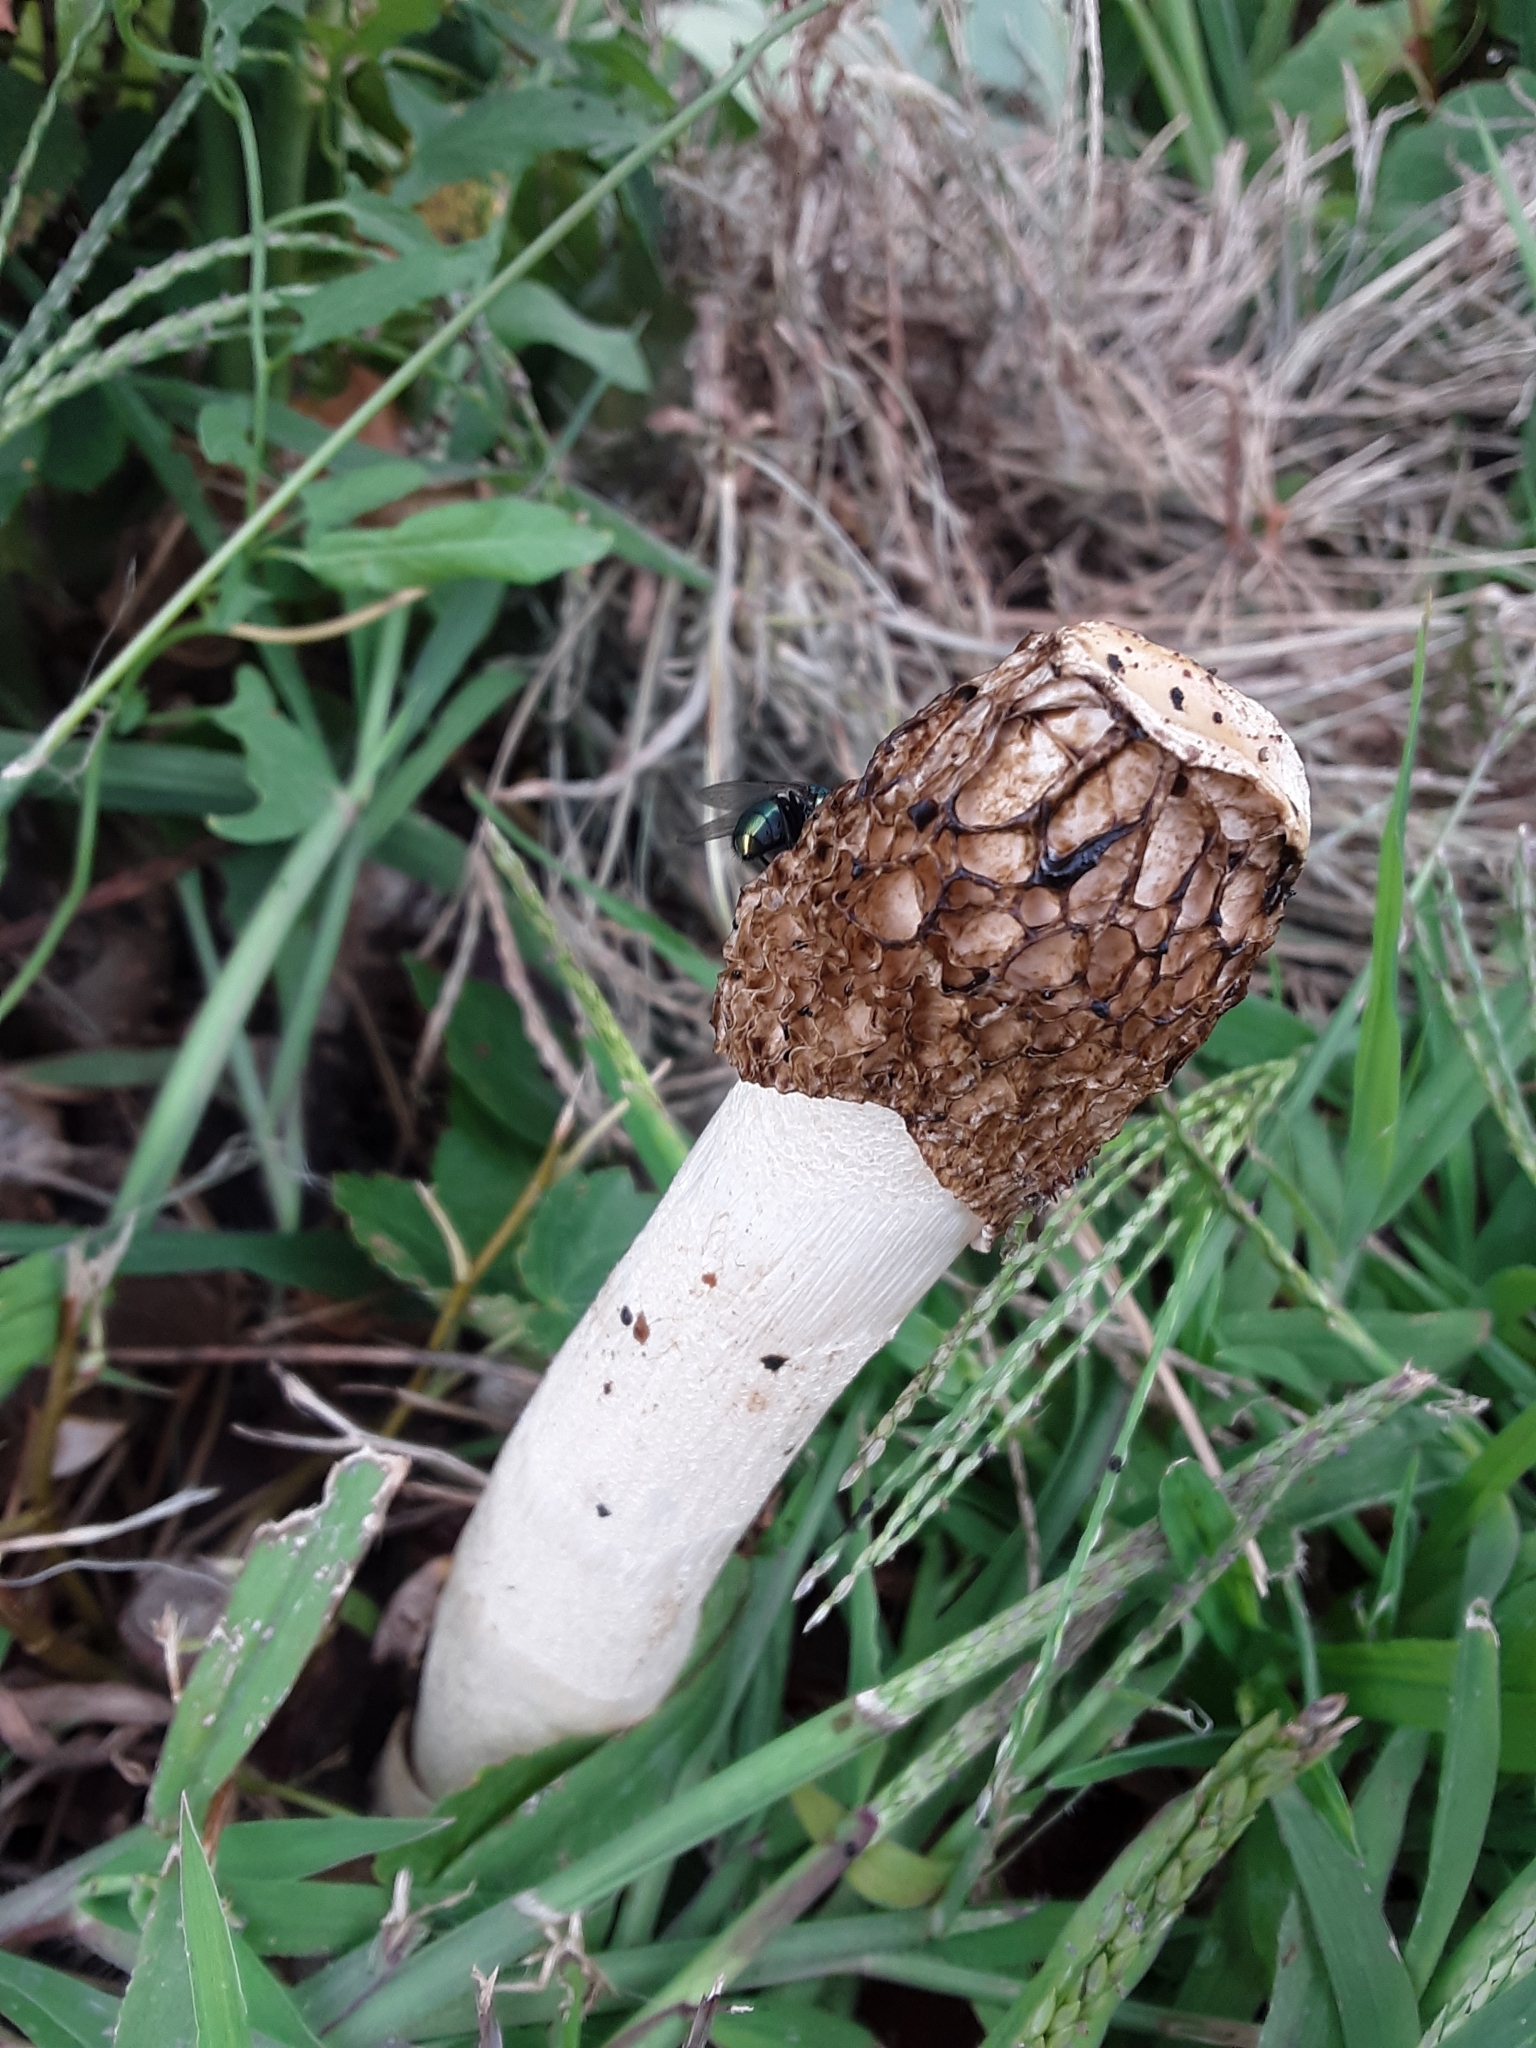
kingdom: Fungi
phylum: Basidiomycota
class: Agaricomycetes
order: Phallales
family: Phallaceae
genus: Phallus
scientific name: Phallus impudicus
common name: Common stinkhorn
